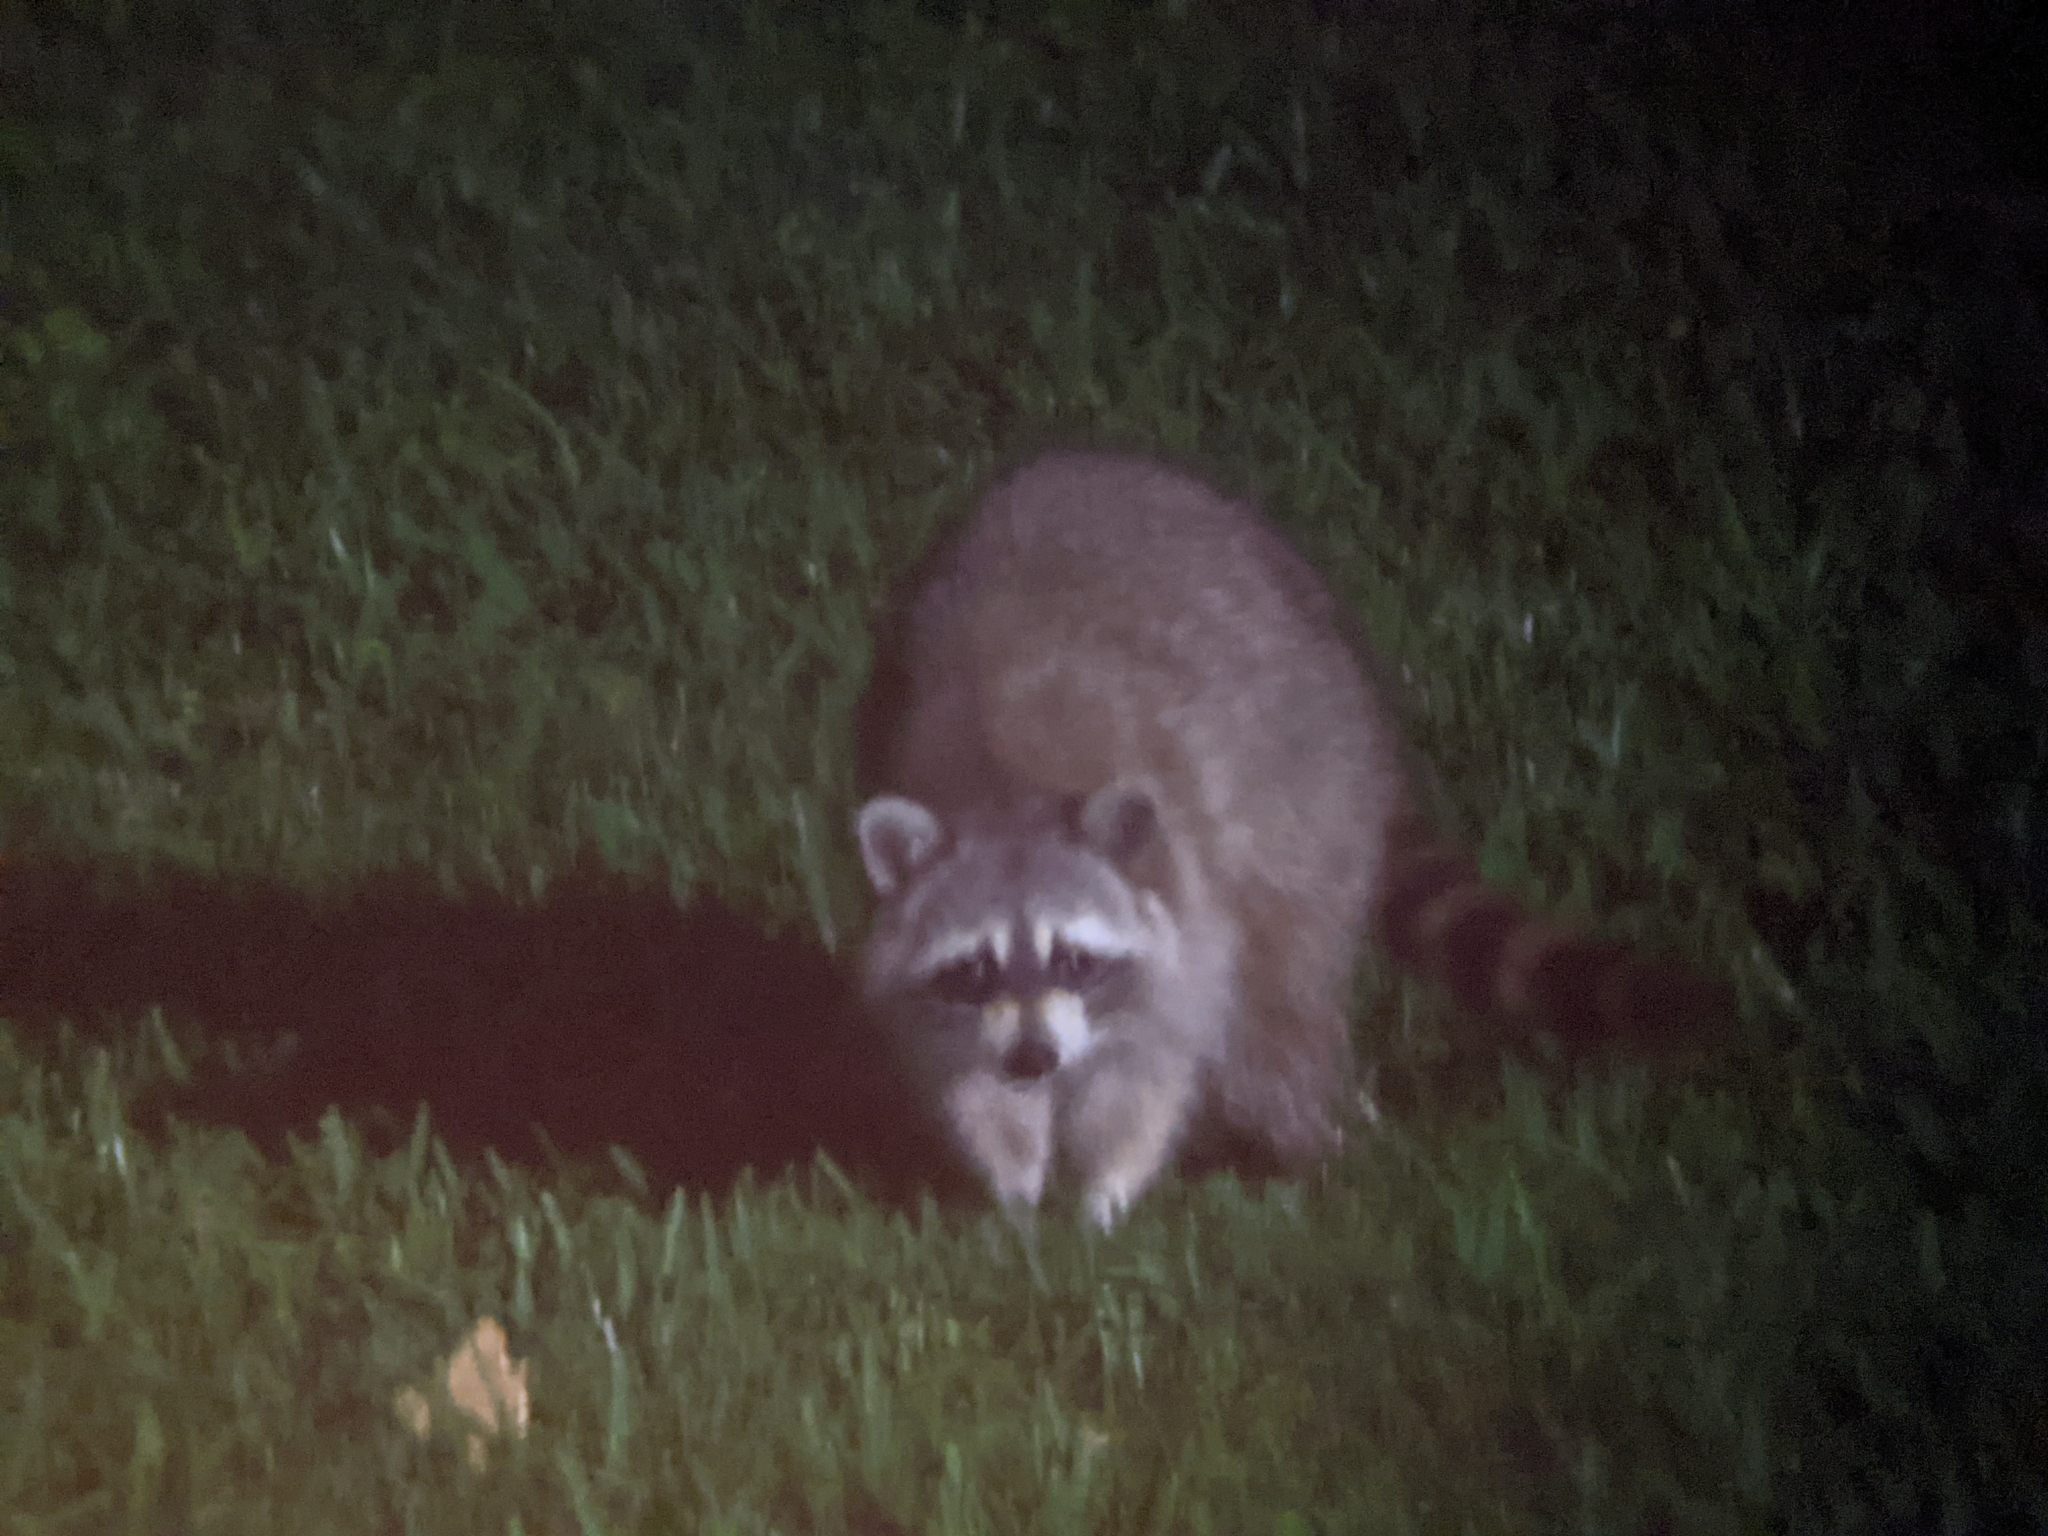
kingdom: Animalia
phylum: Chordata
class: Mammalia
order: Carnivora
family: Procyonidae
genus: Procyon
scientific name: Procyon lotor
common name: Raccoon
